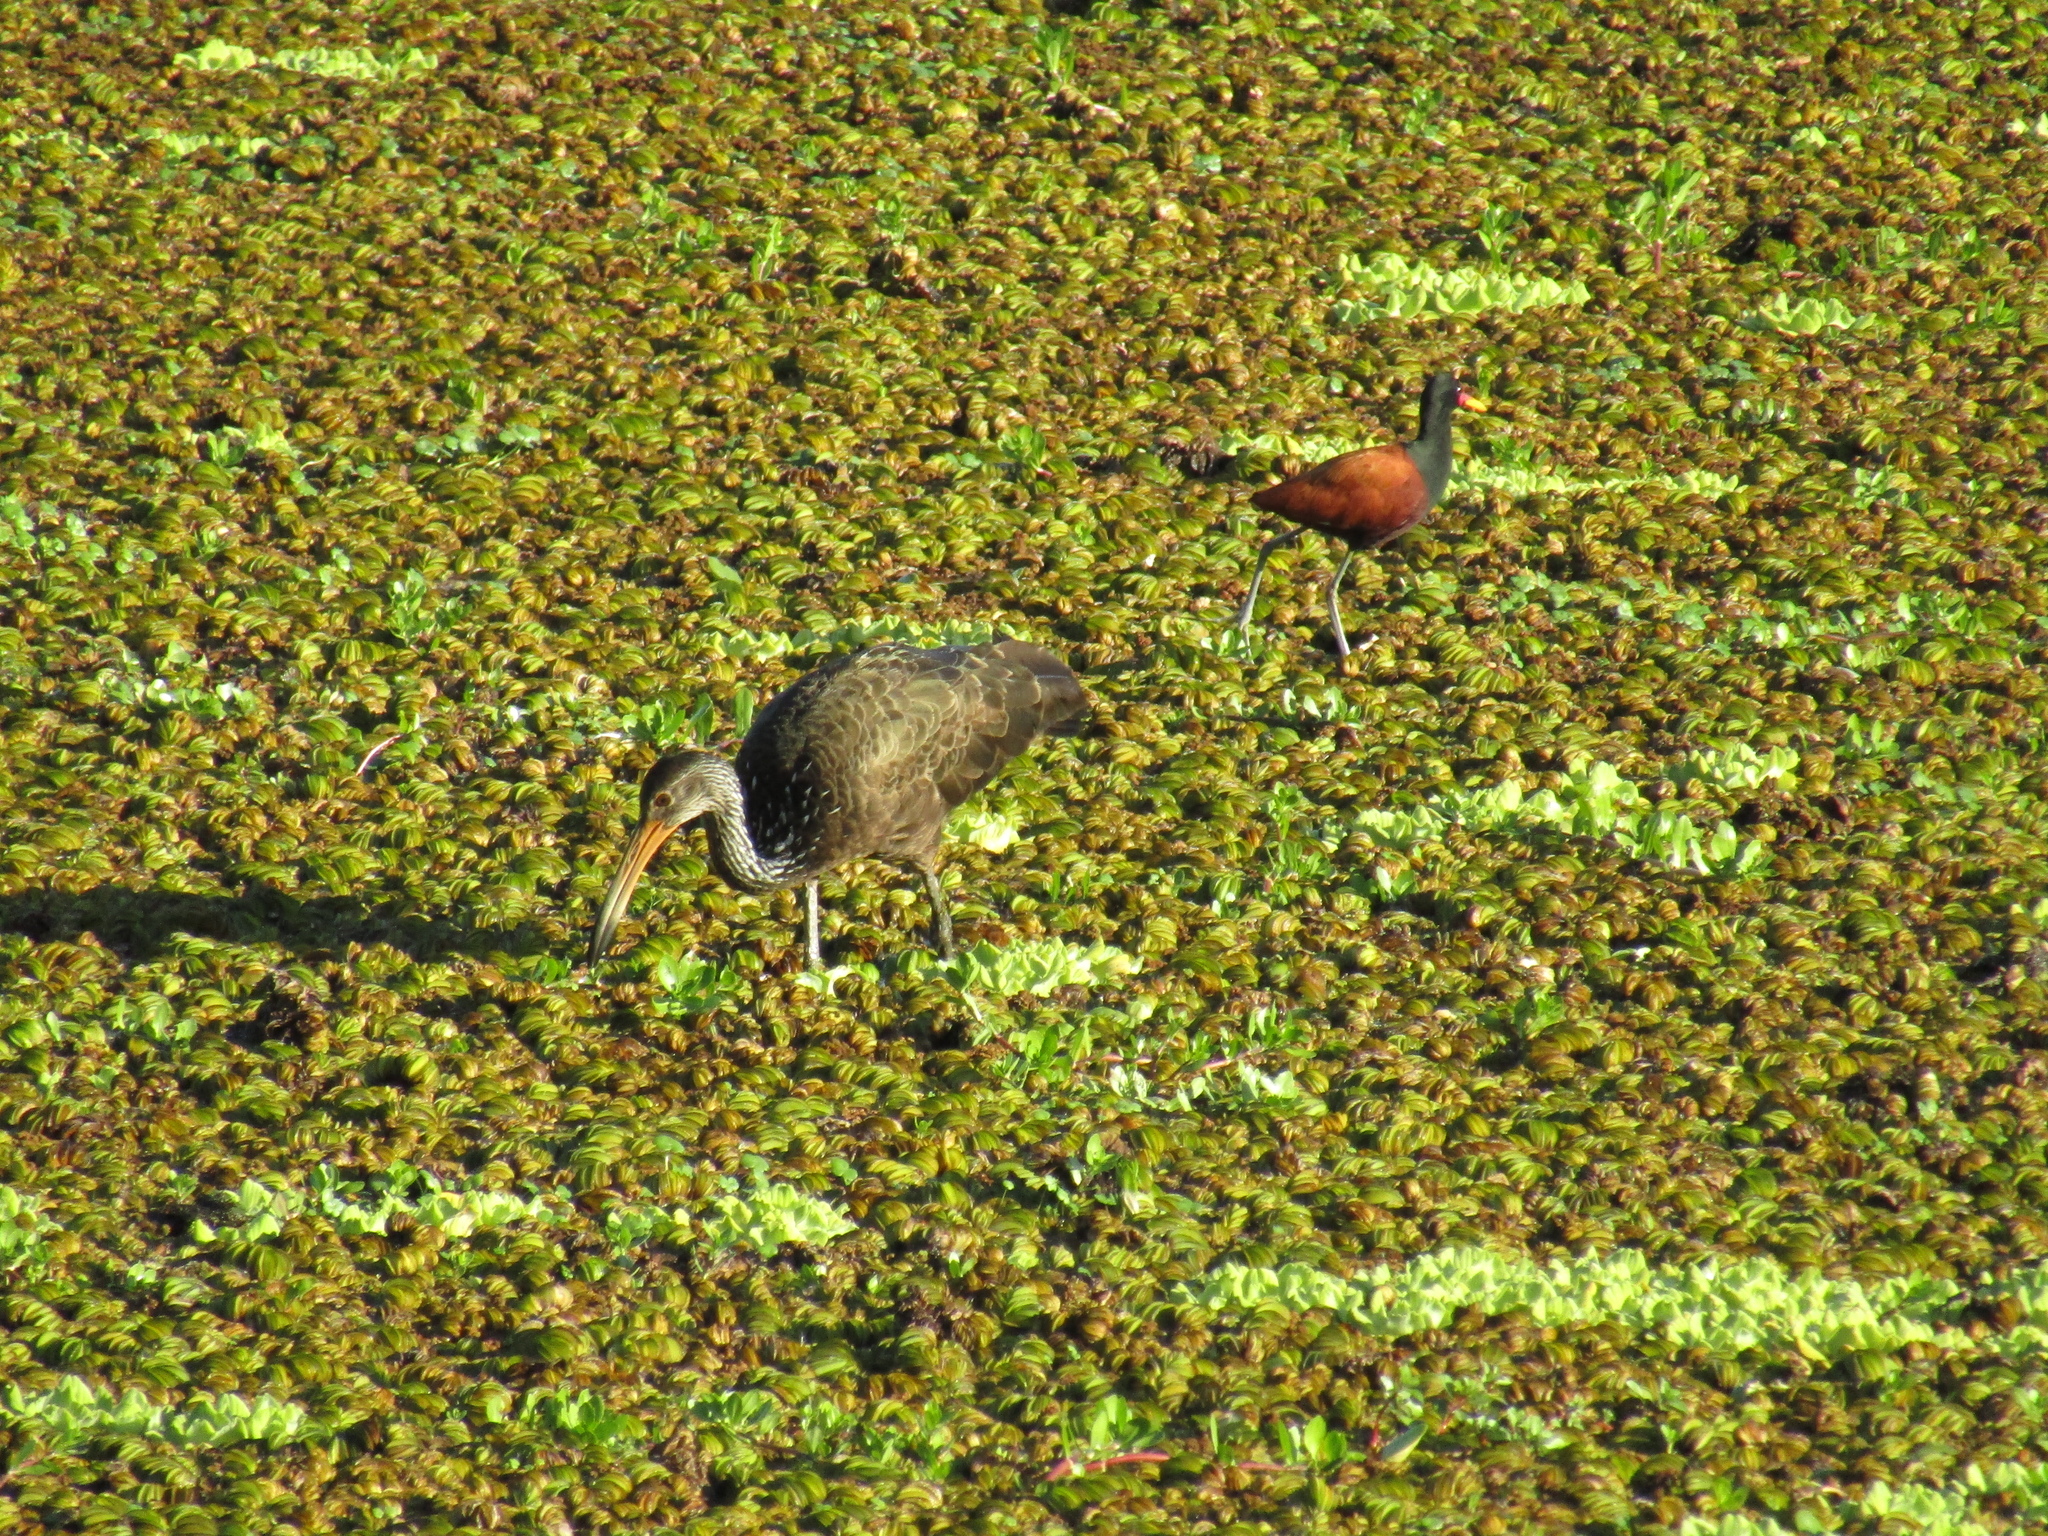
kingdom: Animalia
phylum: Chordata
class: Aves
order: Gruiformes
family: Aramidae
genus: Aramus
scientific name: Aramus guarauna
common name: Limpkin
